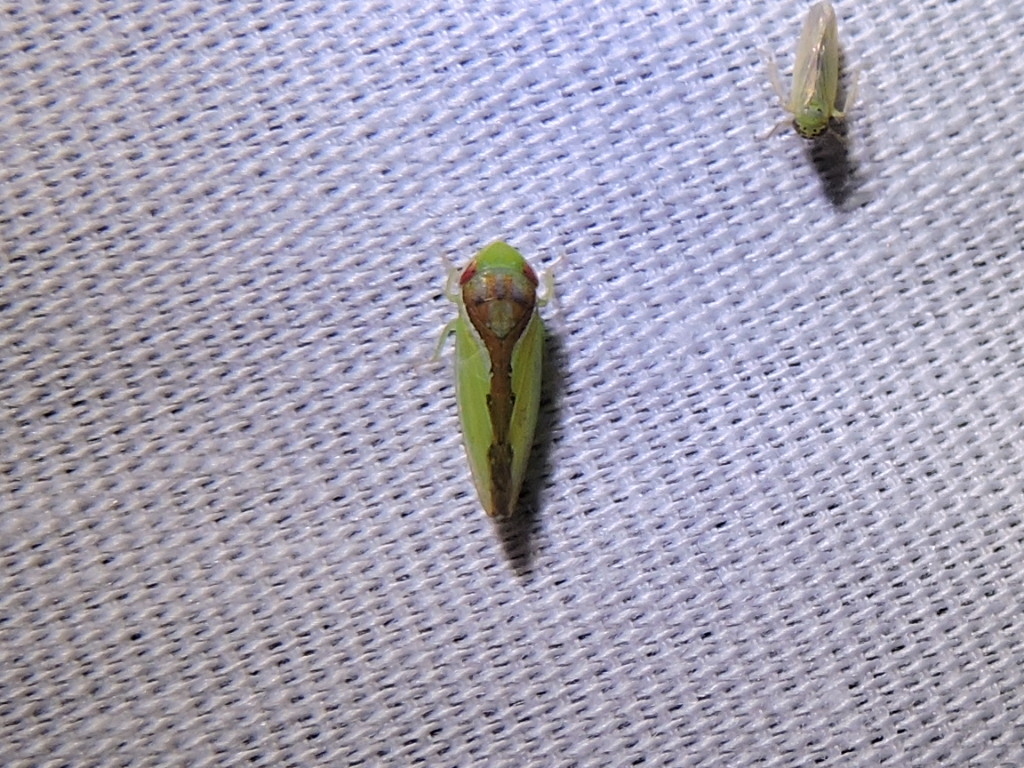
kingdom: Animalia
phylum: Arthropoda
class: Insecta
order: Hemiptera
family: Cicadellidae
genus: Omansobara ing
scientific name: Omansobara ing Omansobara palliolata
